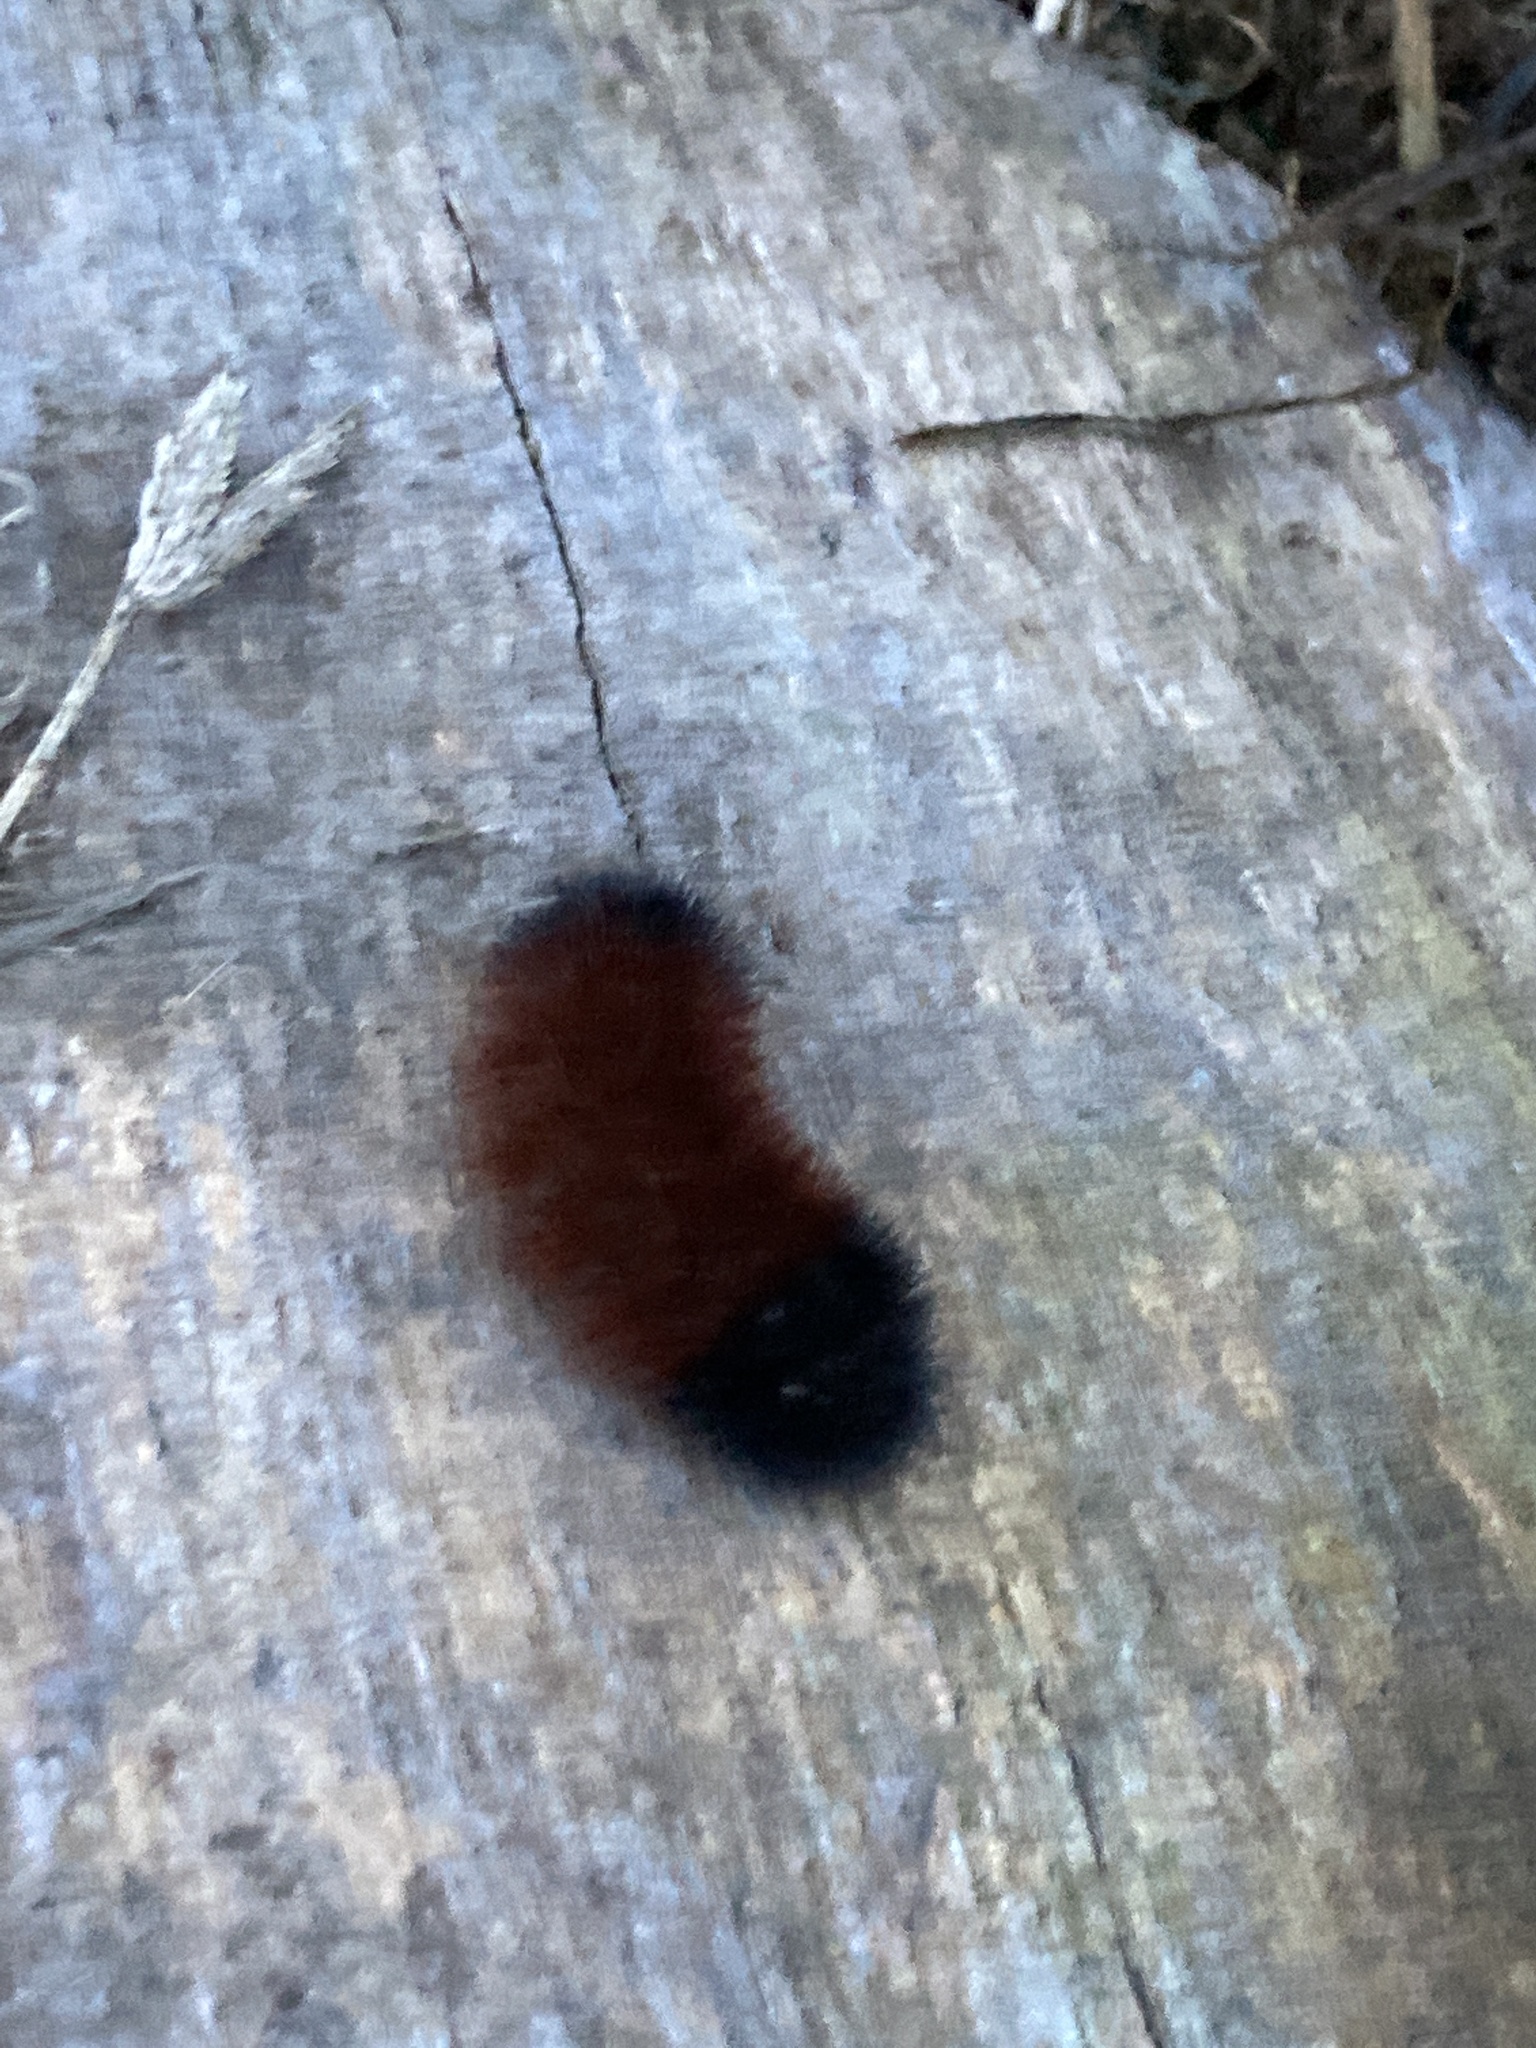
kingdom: Animalia
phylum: Arthropoda
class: Insecta
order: Lepidoptera
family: Erebidae
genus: Pyrrharctia
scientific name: Pyrrharctia isabella
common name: Isabella tiger moth
